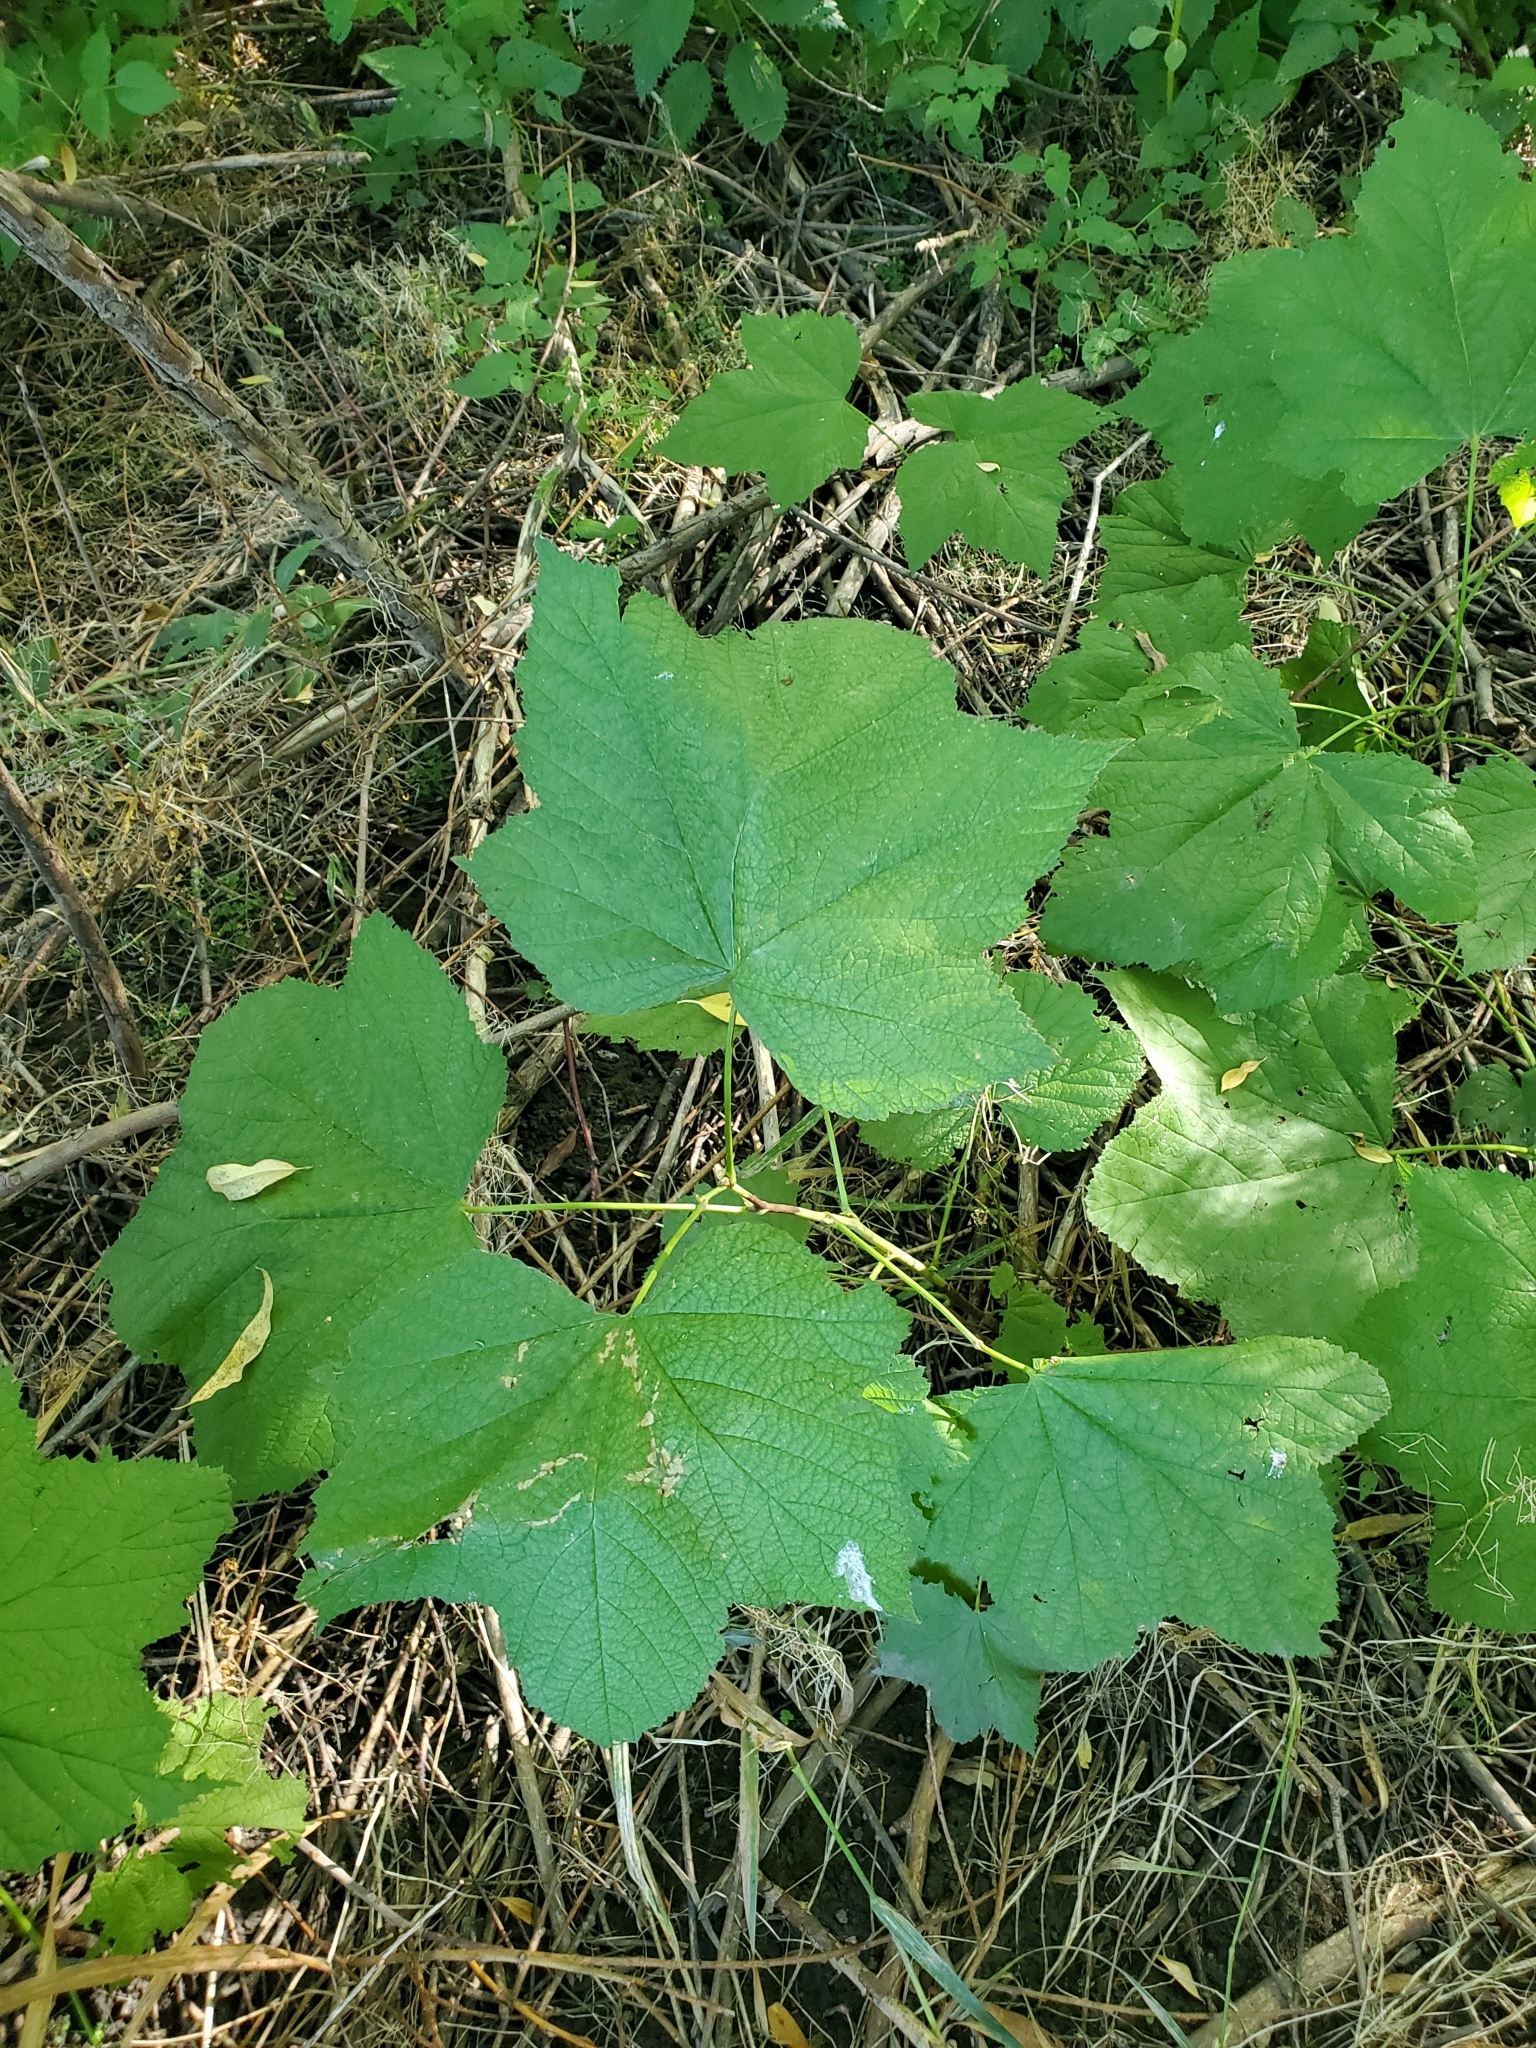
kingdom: Plantae
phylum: Tracheophyta
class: Magnoliopsida
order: Rosales
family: Rosaceae
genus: Rubus
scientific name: Rubus parviflorus
